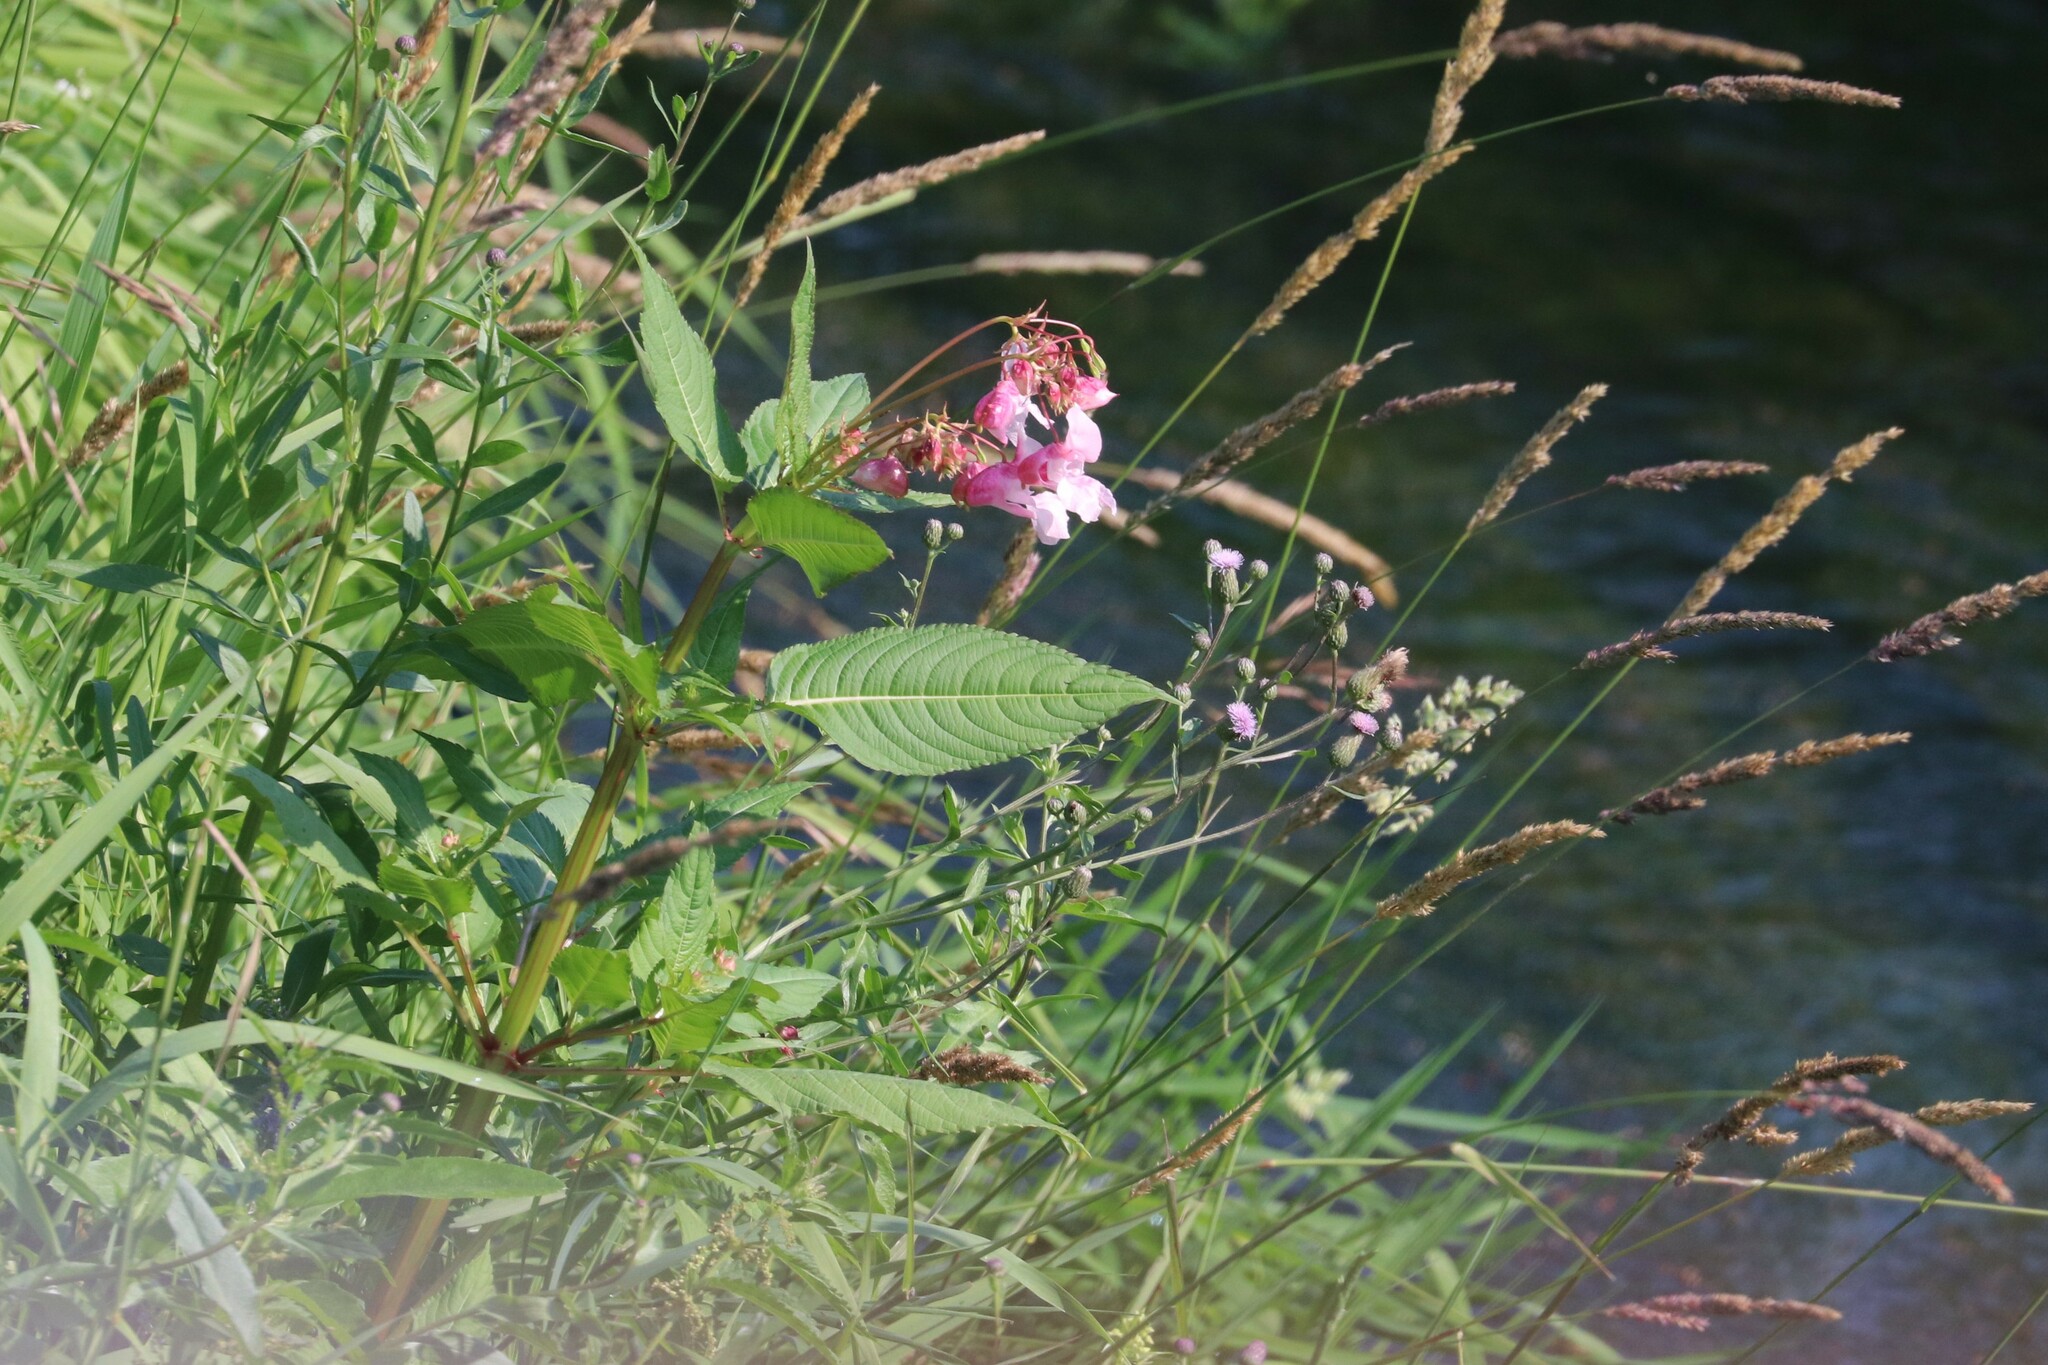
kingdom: Plantae
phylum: Tracheophyta
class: Magnoliopsida
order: Ericales
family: Balsaminaceae
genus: Impatiens
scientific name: Impatiens glandulifera
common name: Himalayan balsam
